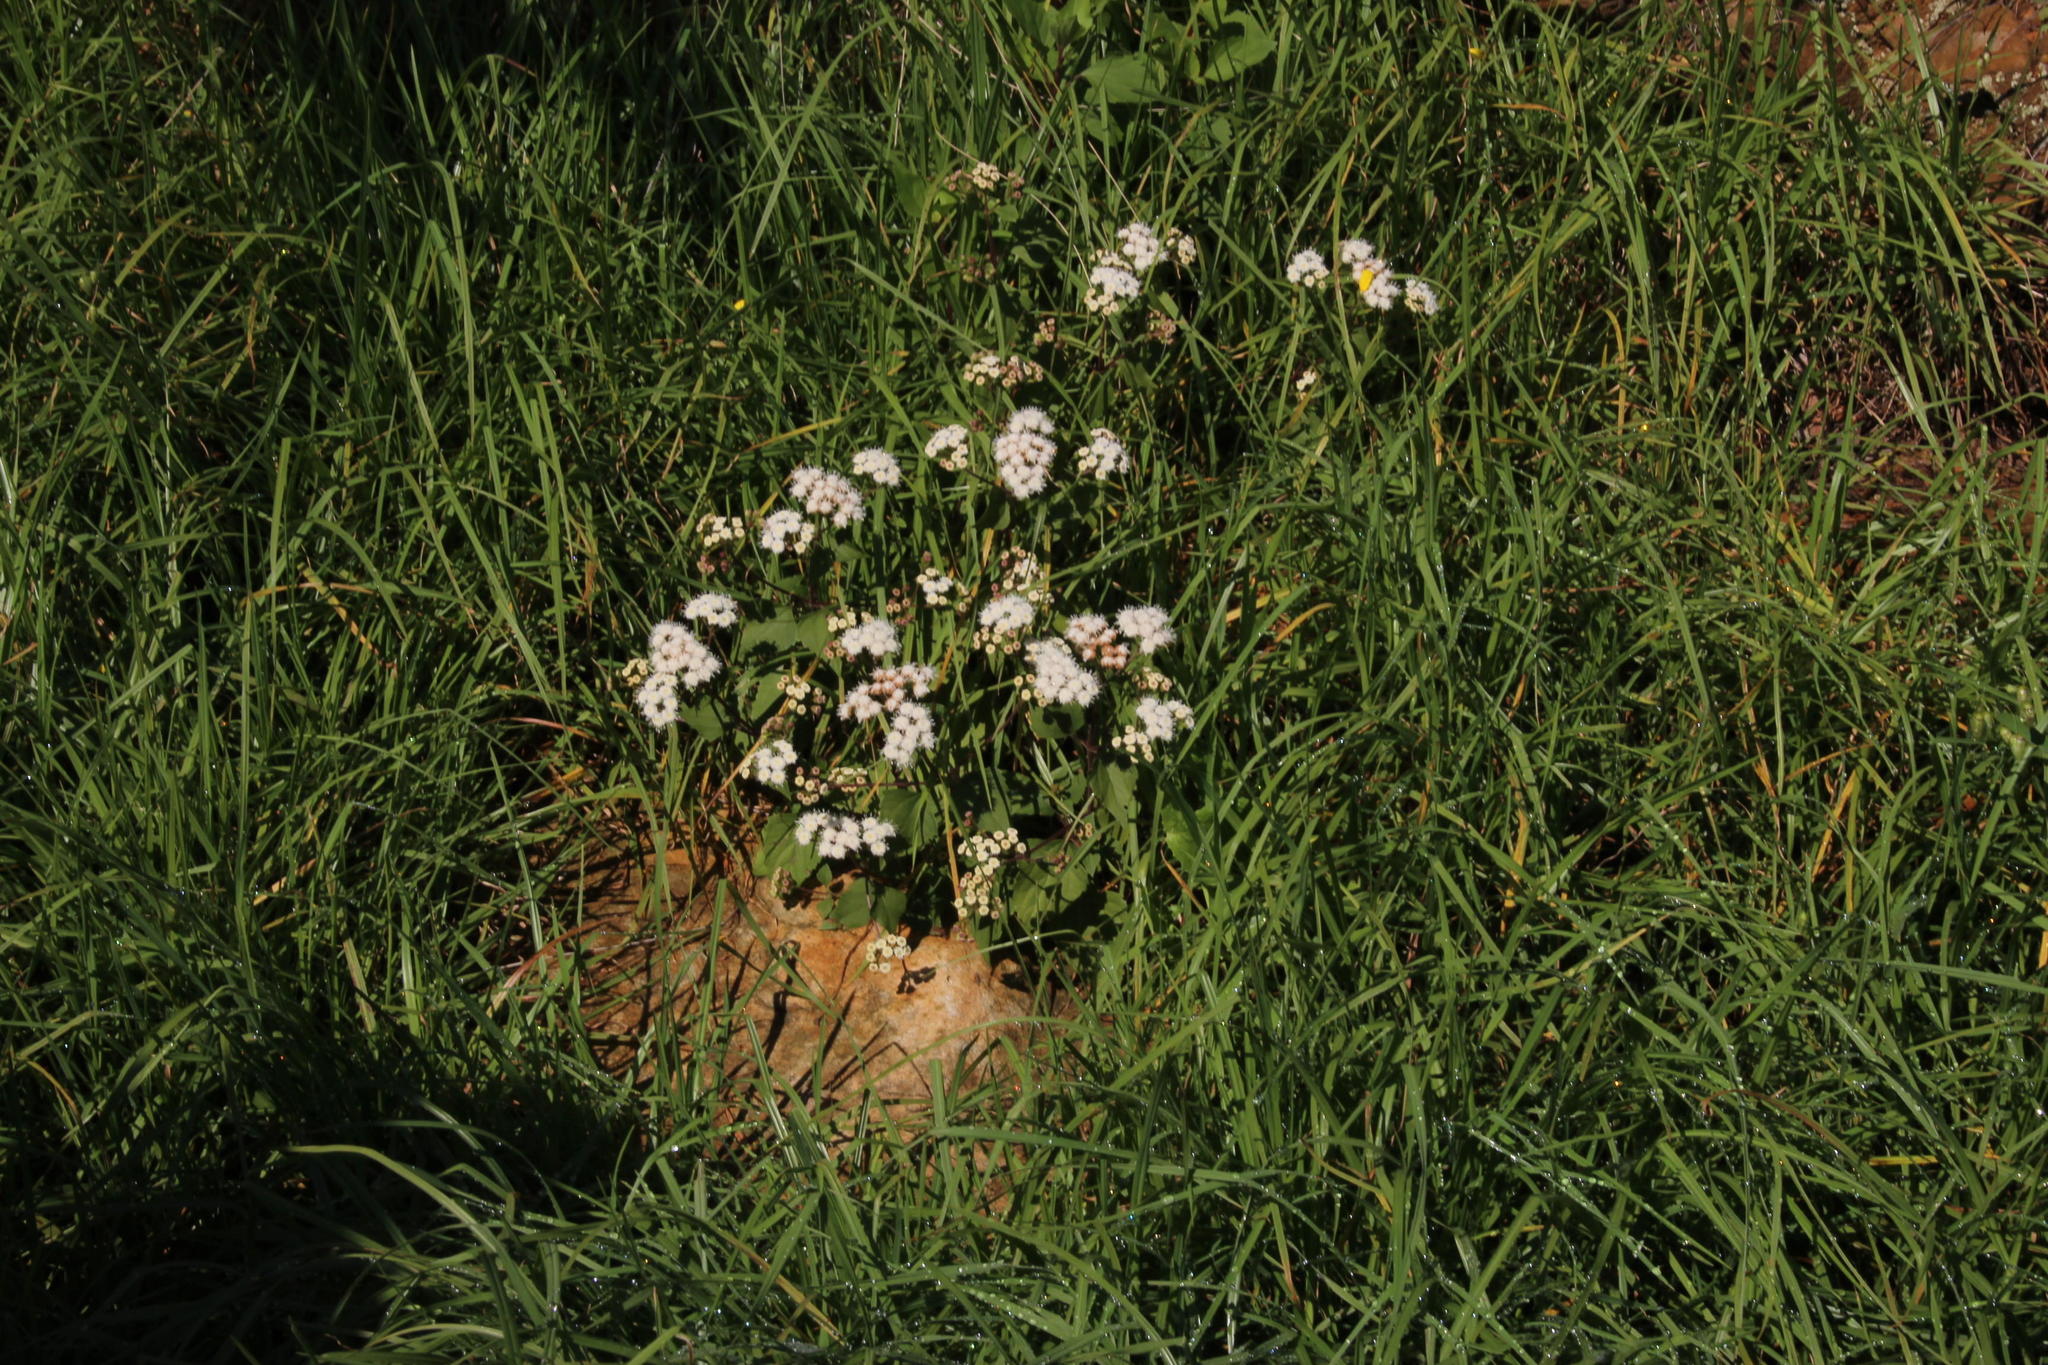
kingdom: Plantae
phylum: Tracheophyta
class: Magnoliopsida
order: Asterales
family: Asteraceae
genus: Ageratina
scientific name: Ageratina adenophora
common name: Sticky snakeroot
